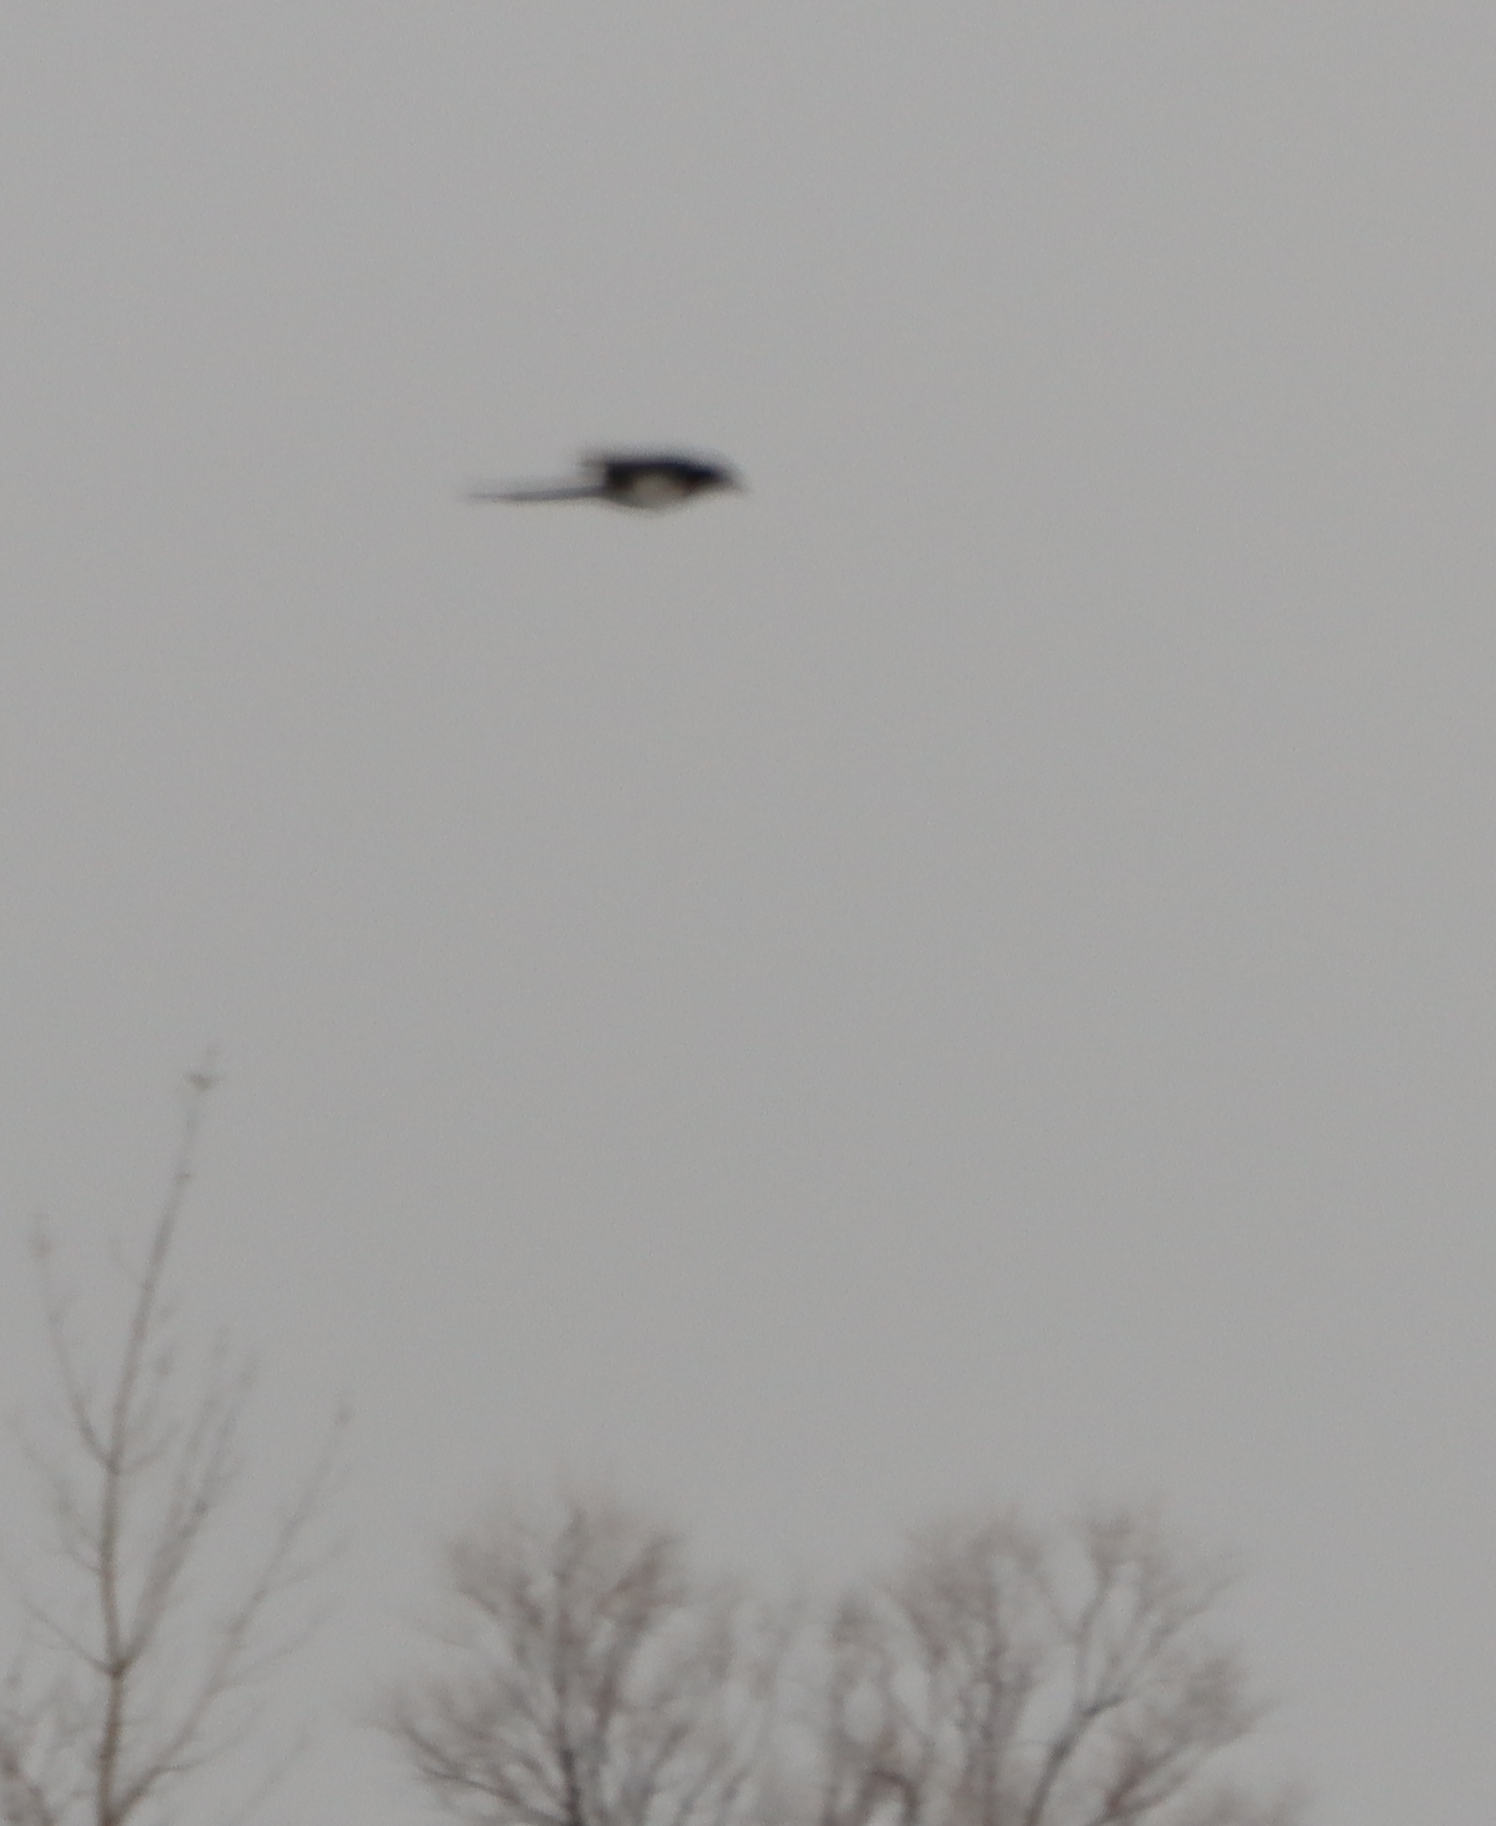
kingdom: Animalia
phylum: Chordata
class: Aves
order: Passeriformes
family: Corvidae
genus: Pica
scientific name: Pica hudsonia
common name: Black-billed magpie
